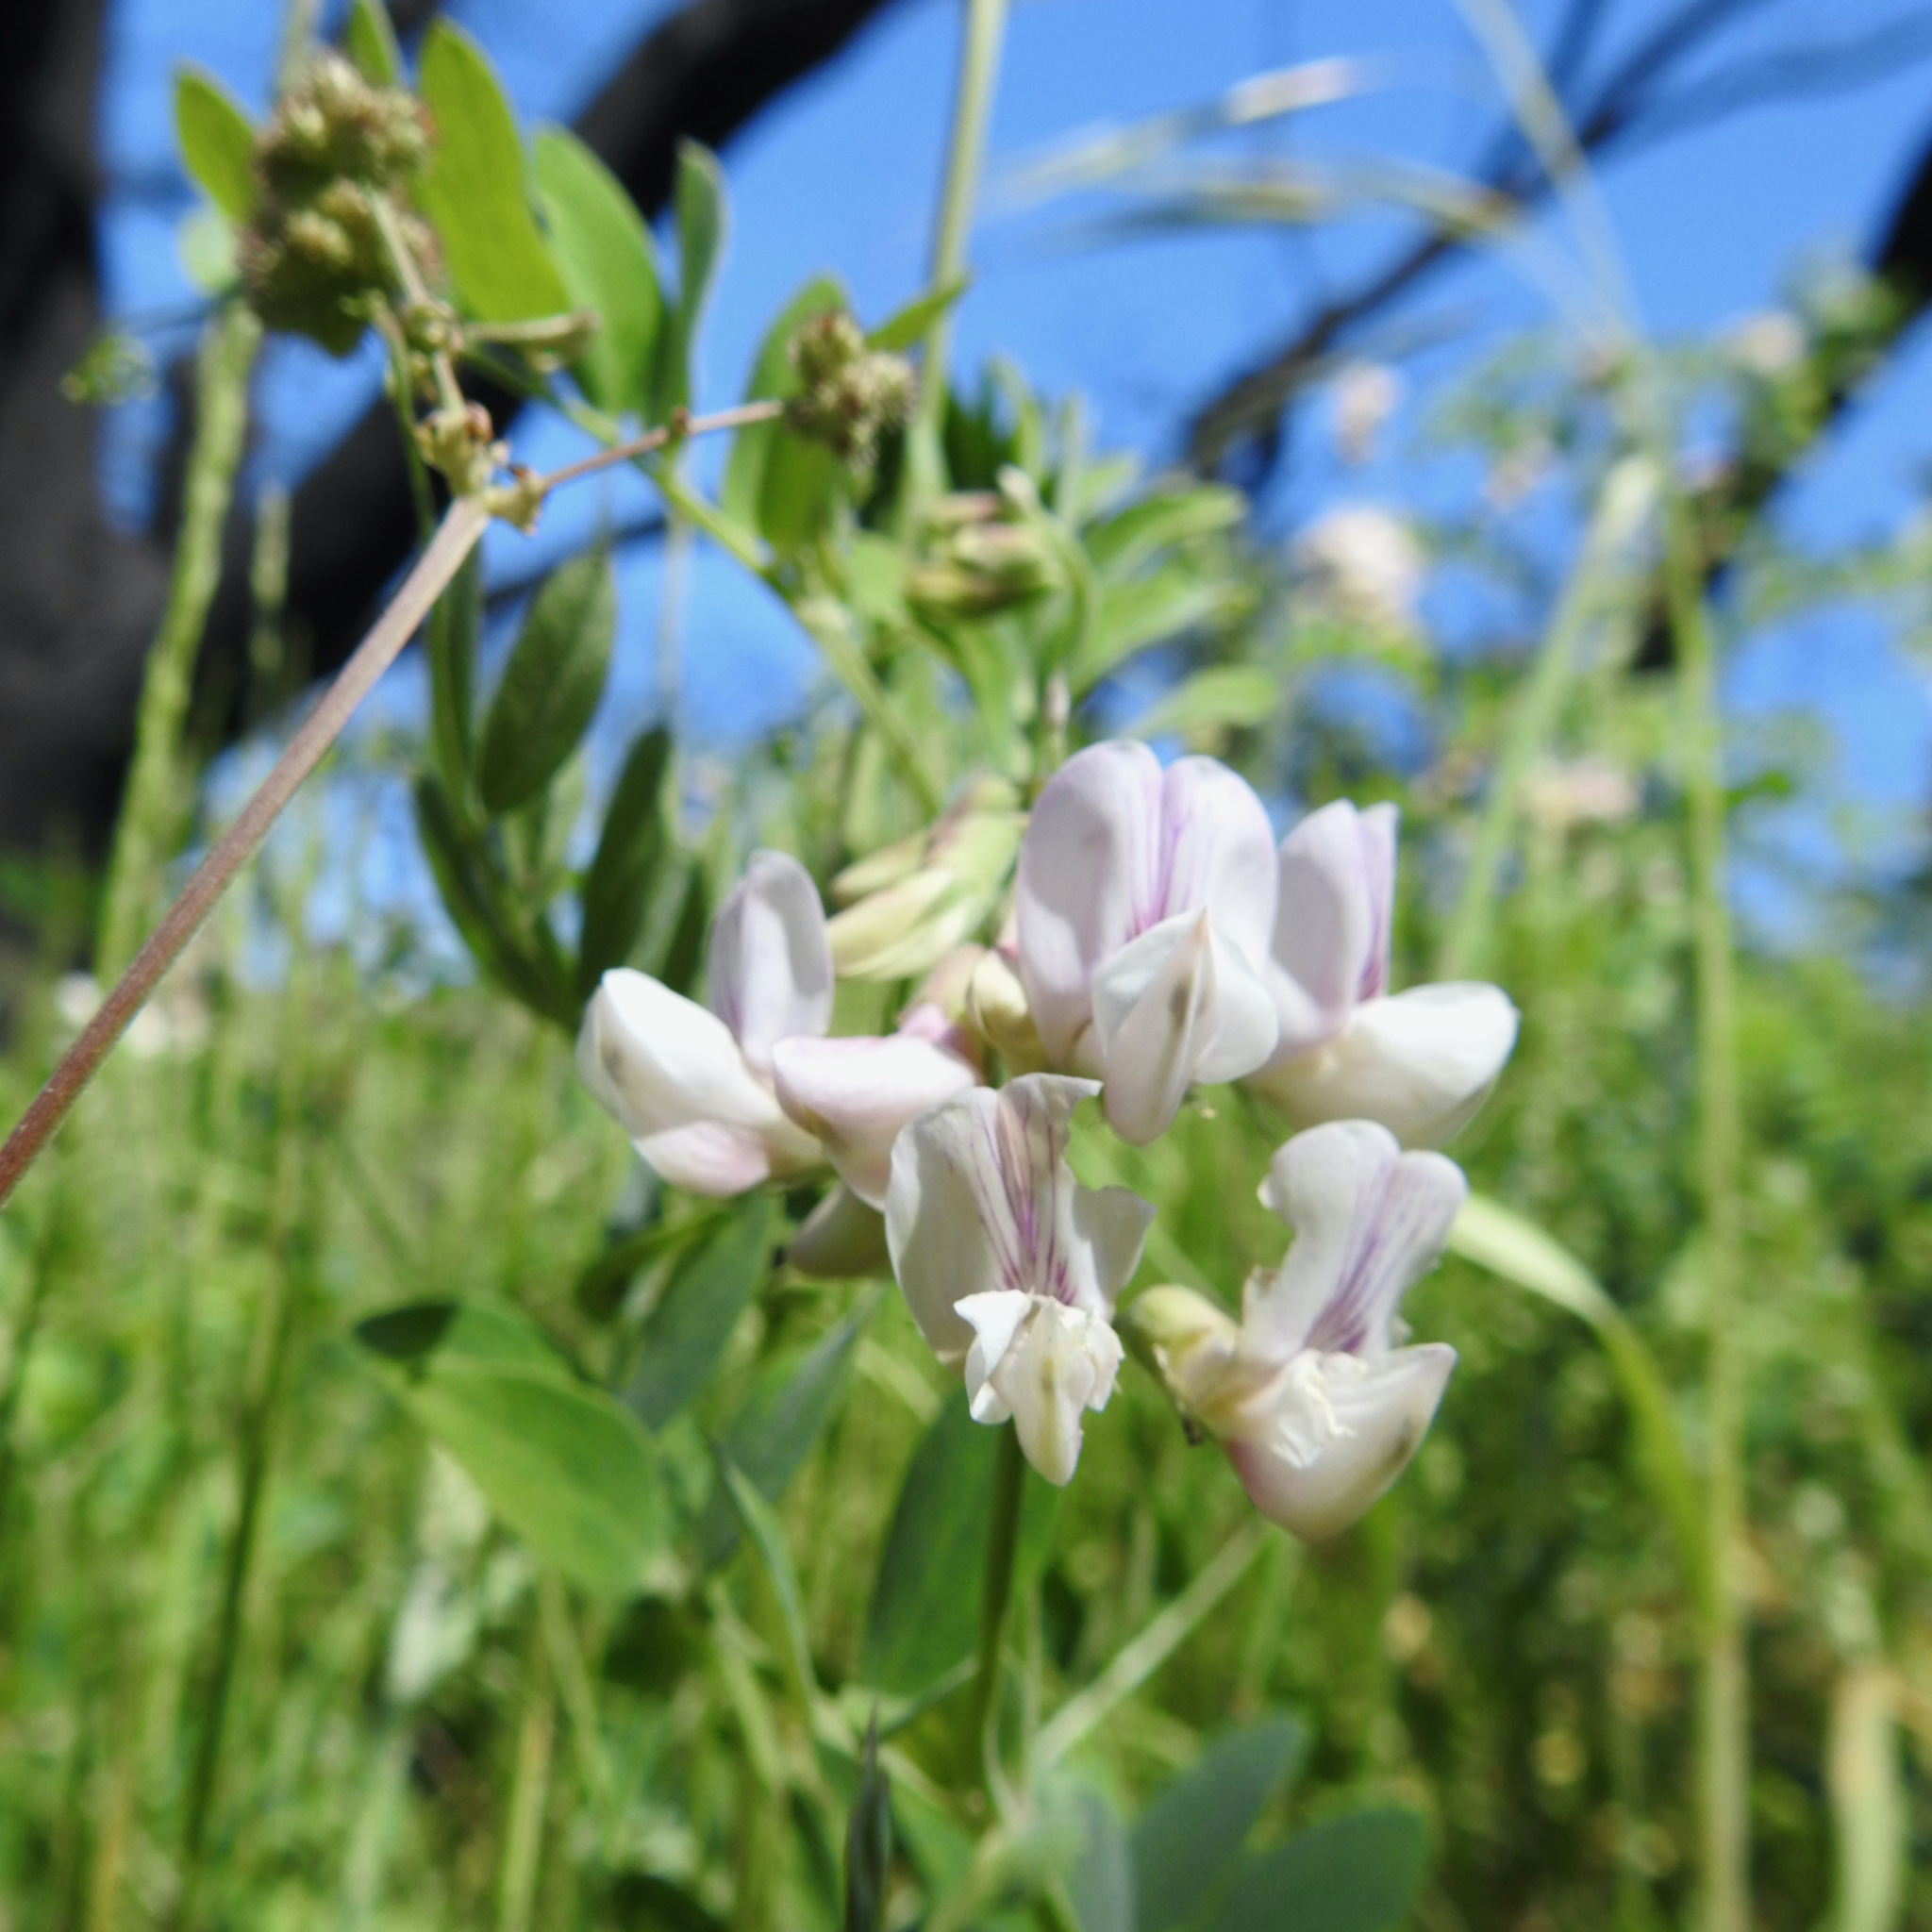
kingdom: Plantae
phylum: Tracheophyta
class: Magnoliopsida
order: Fabales
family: Fabaceae
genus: Lathyrus
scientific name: Lathyrus vestitus
